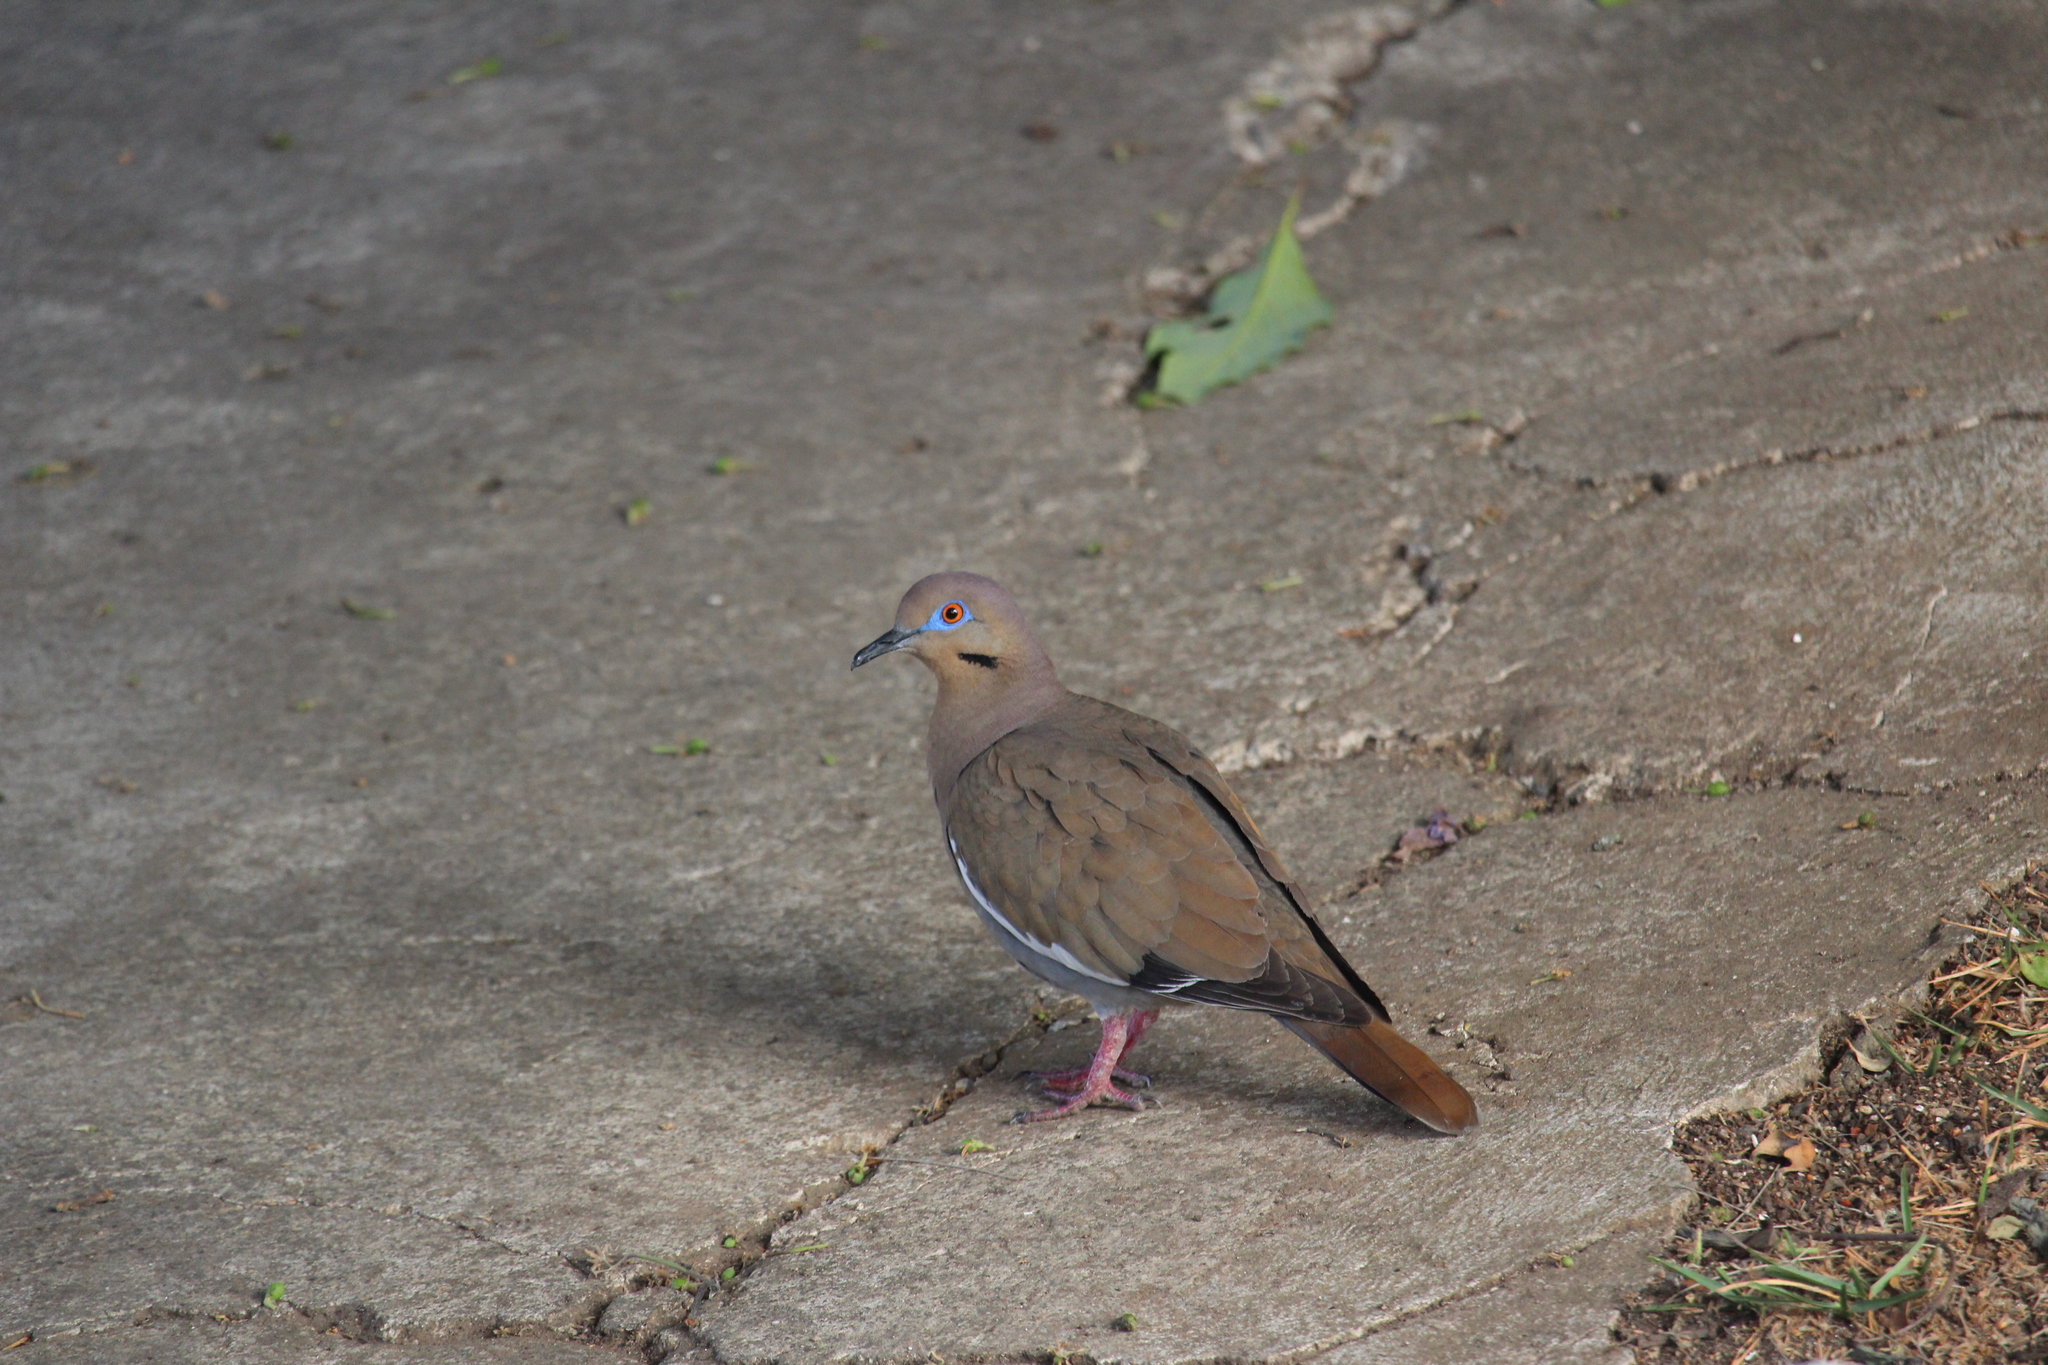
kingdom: Animalia
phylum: Chordata
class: Aves
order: Columbiformes
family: Columbidae
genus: Zenaida
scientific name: Zenaida asiatica
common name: White-winged dove
